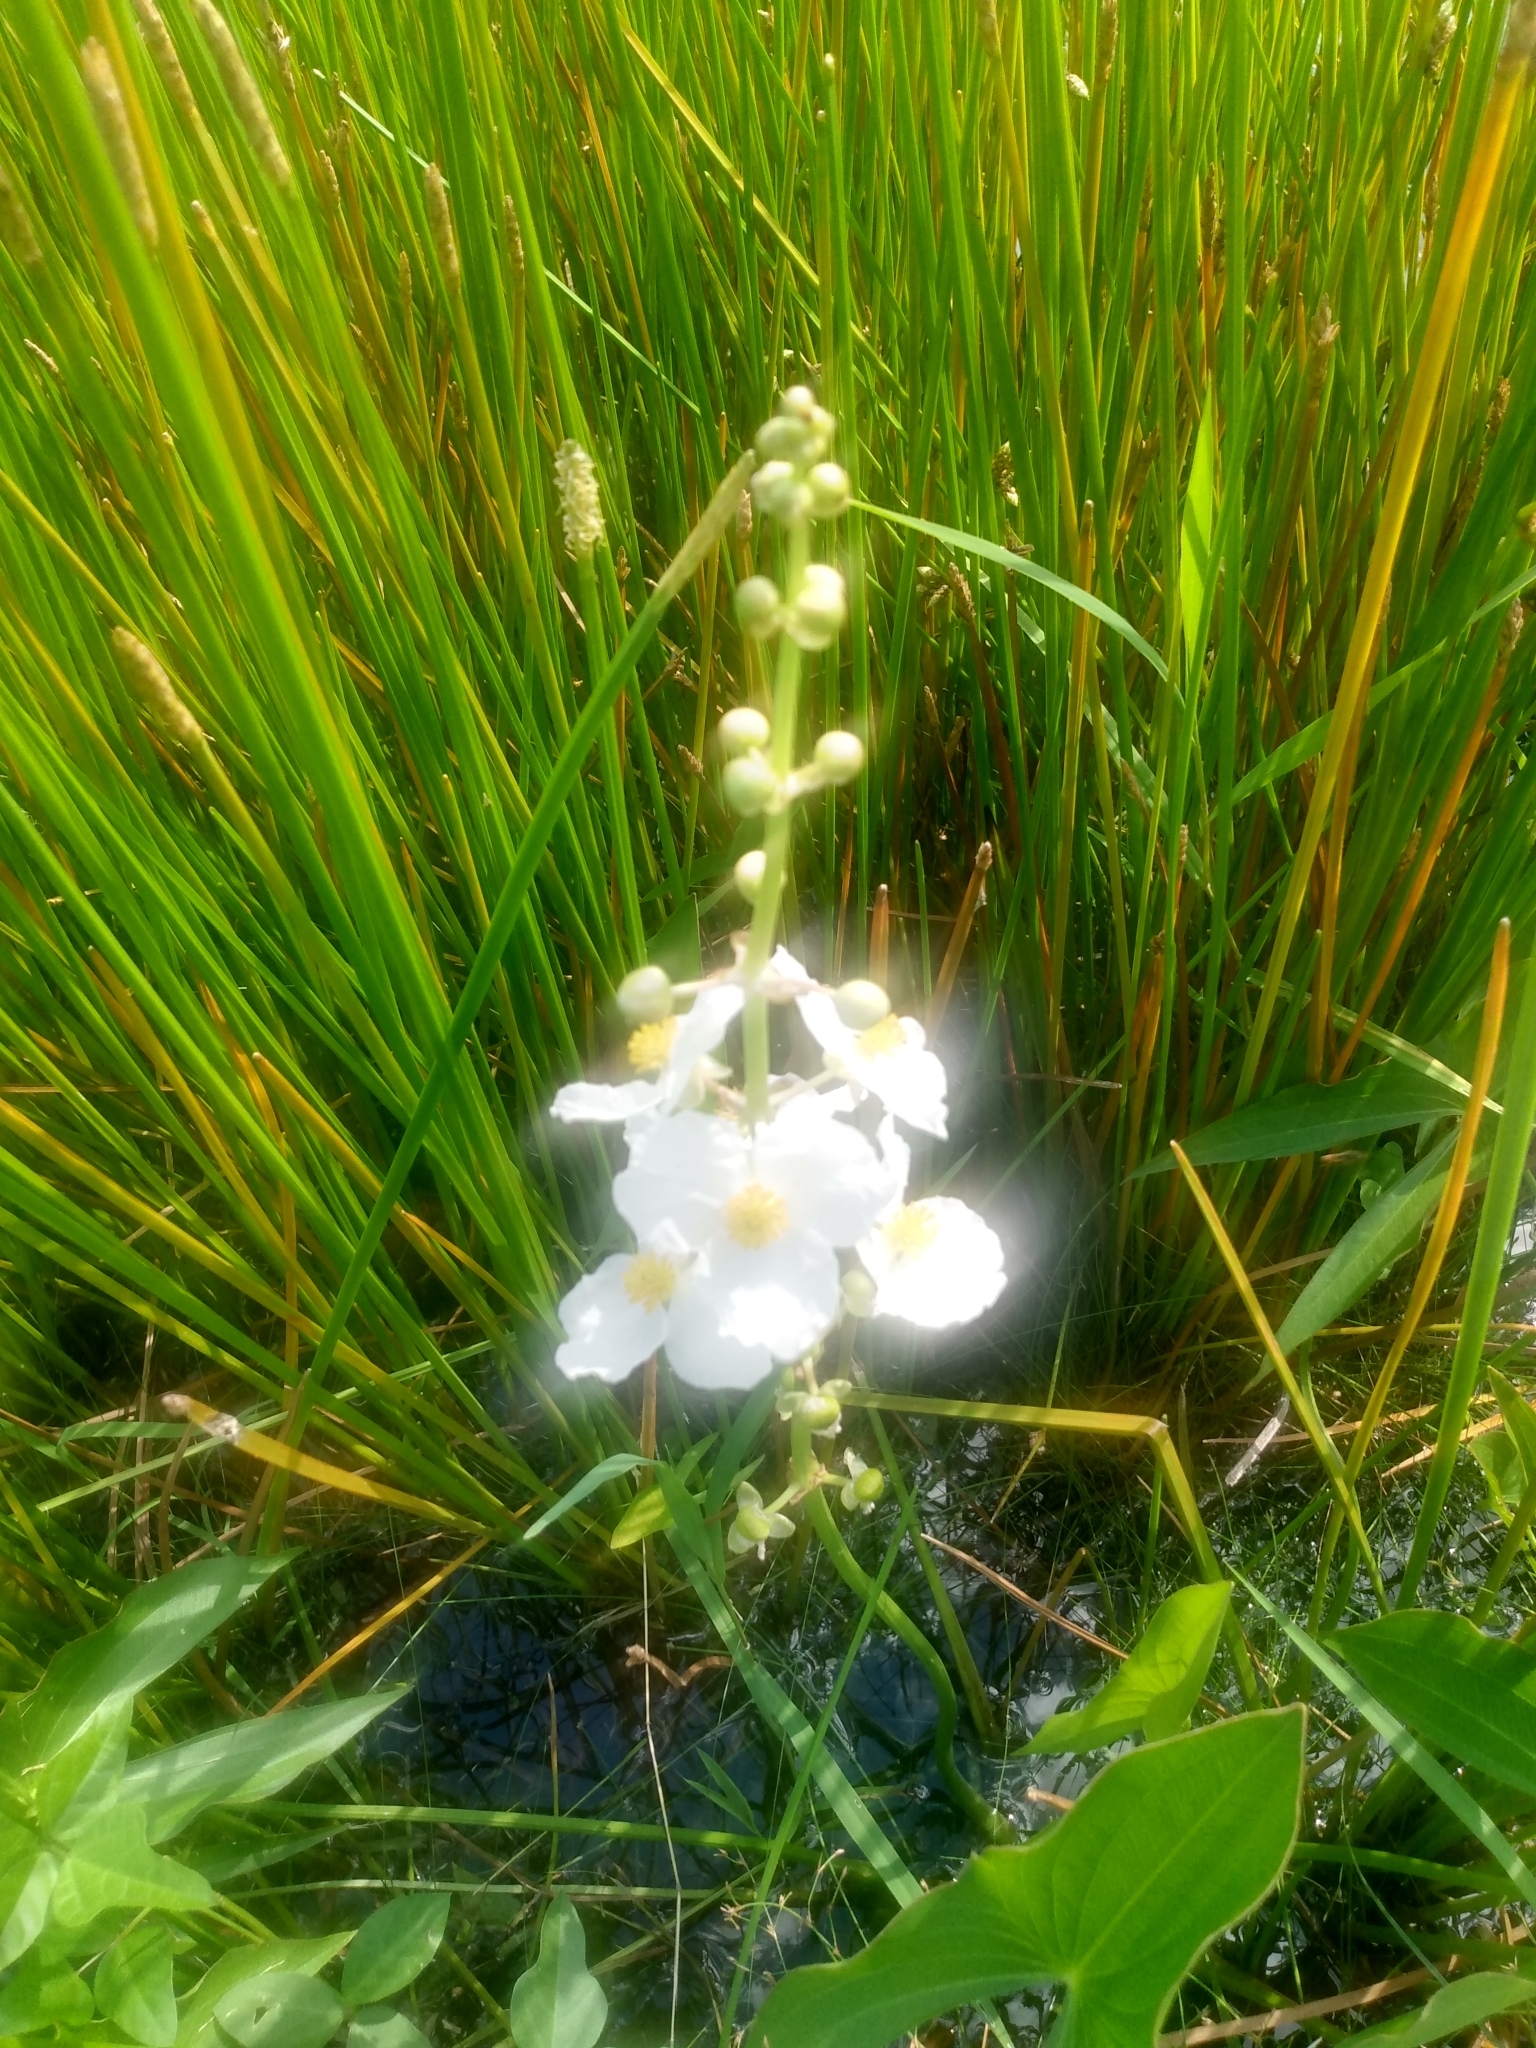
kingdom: Plantae
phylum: Tracheophyta
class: Liliopsida
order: Alismatales
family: Alismataceae
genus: Sagittaria
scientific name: Sagittaria latifolia
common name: Duck-potato
